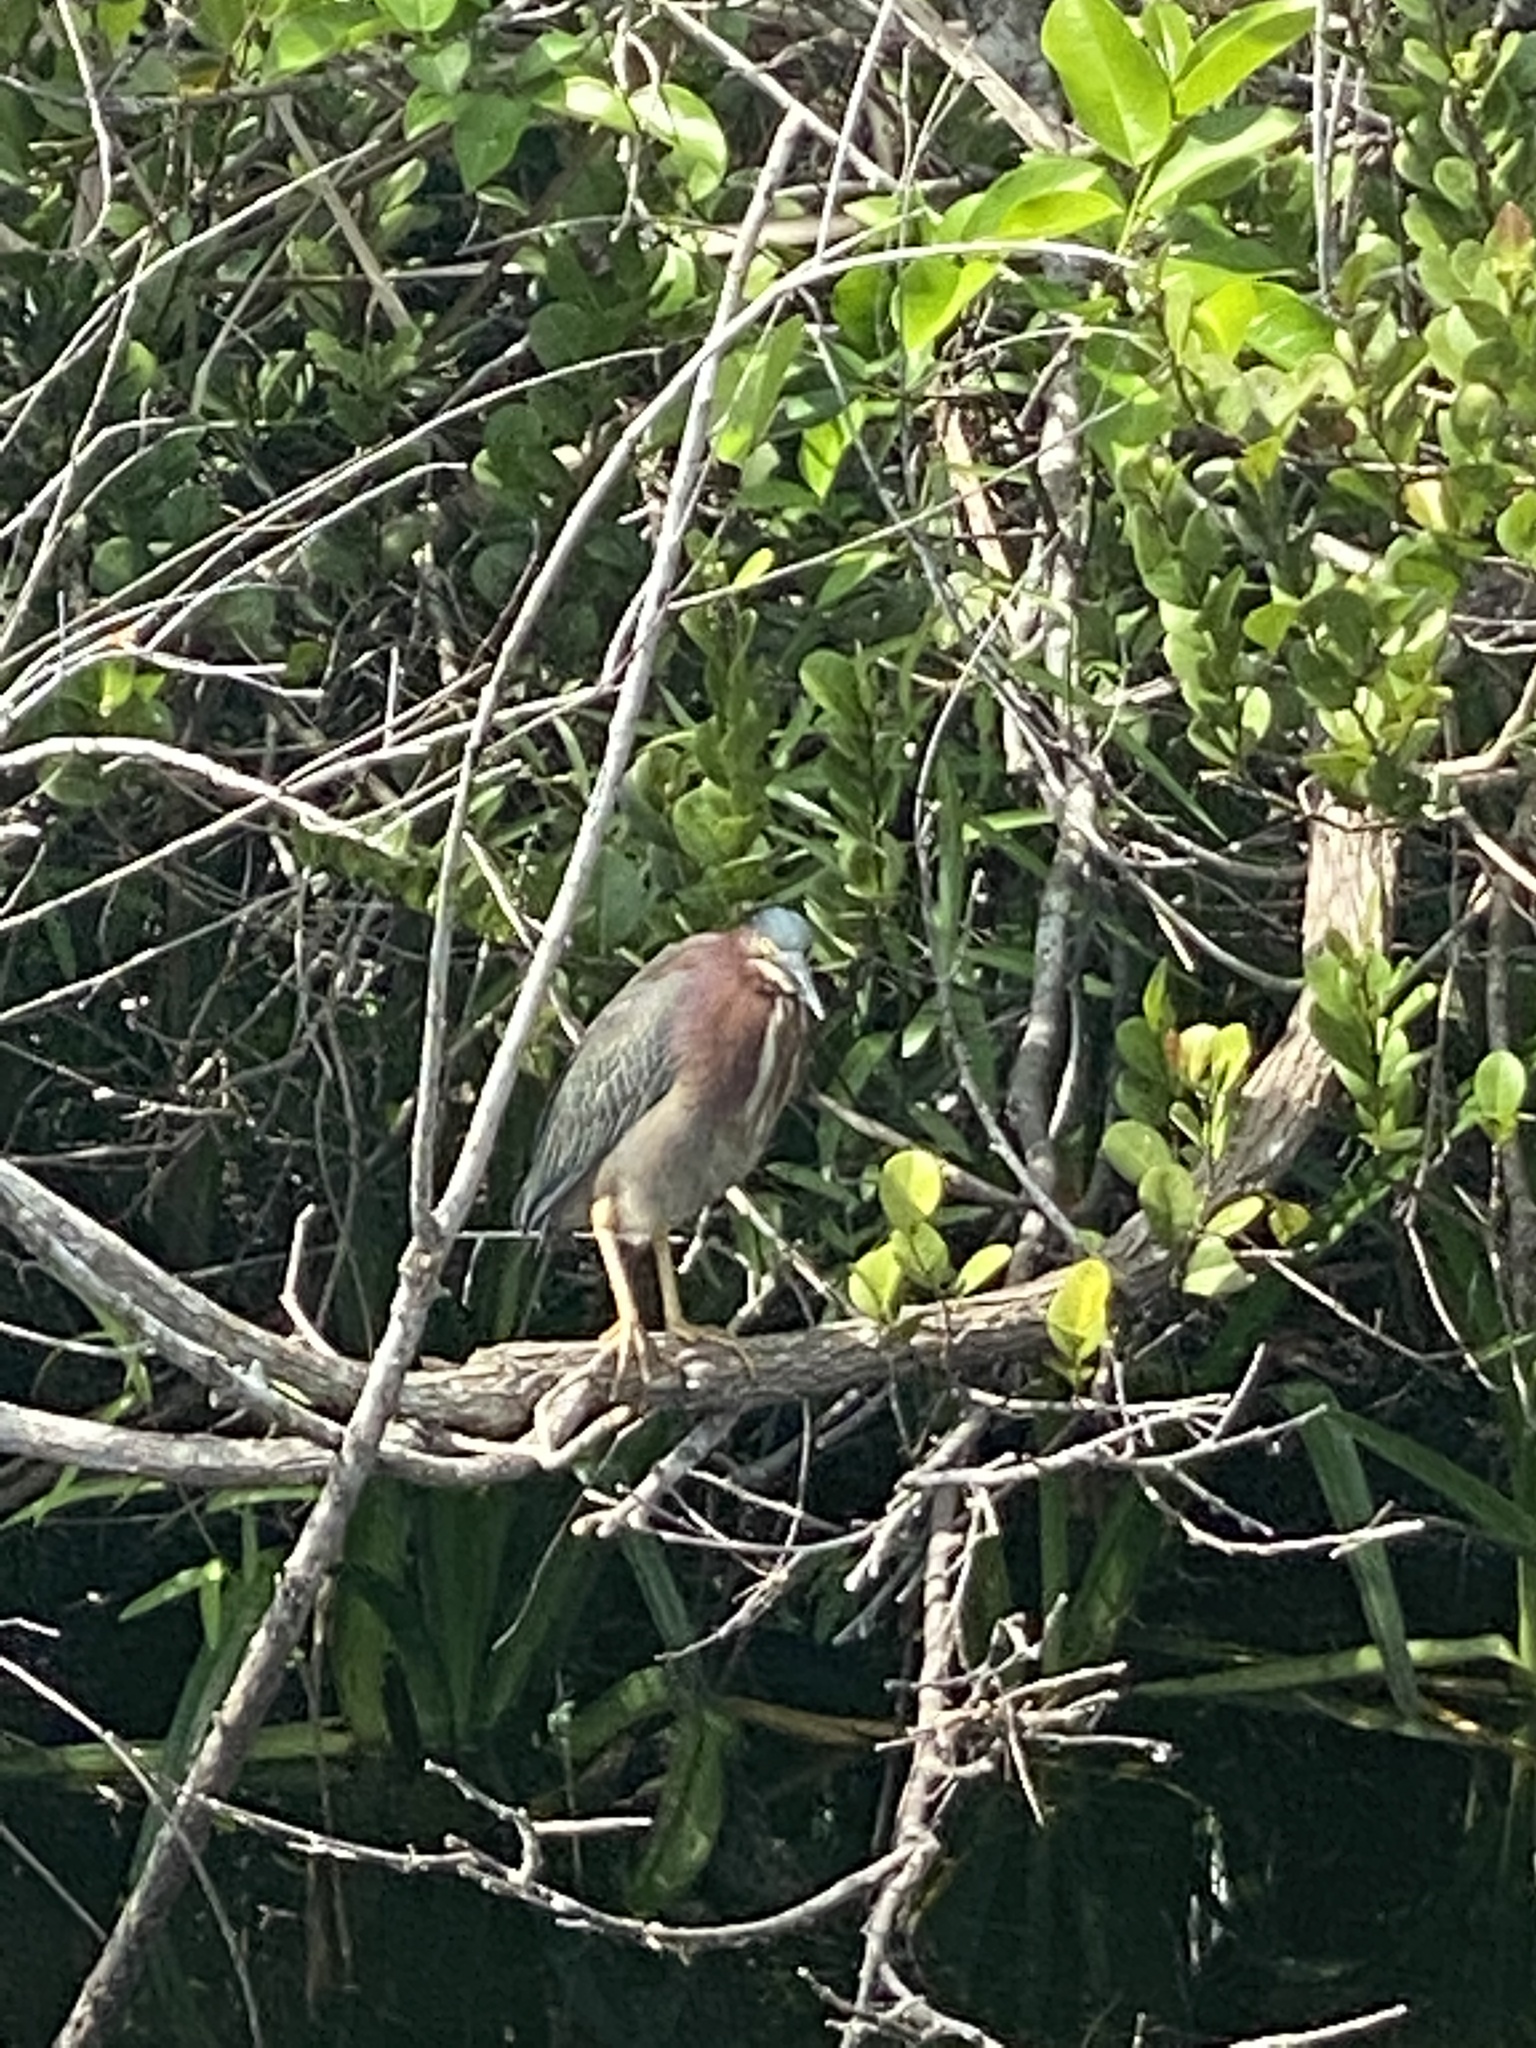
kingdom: Animalia
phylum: Chordata
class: Aves
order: Pelecaniformes
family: Ardeidae
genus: Butorides
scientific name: Butorides virescens
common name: Green heron
